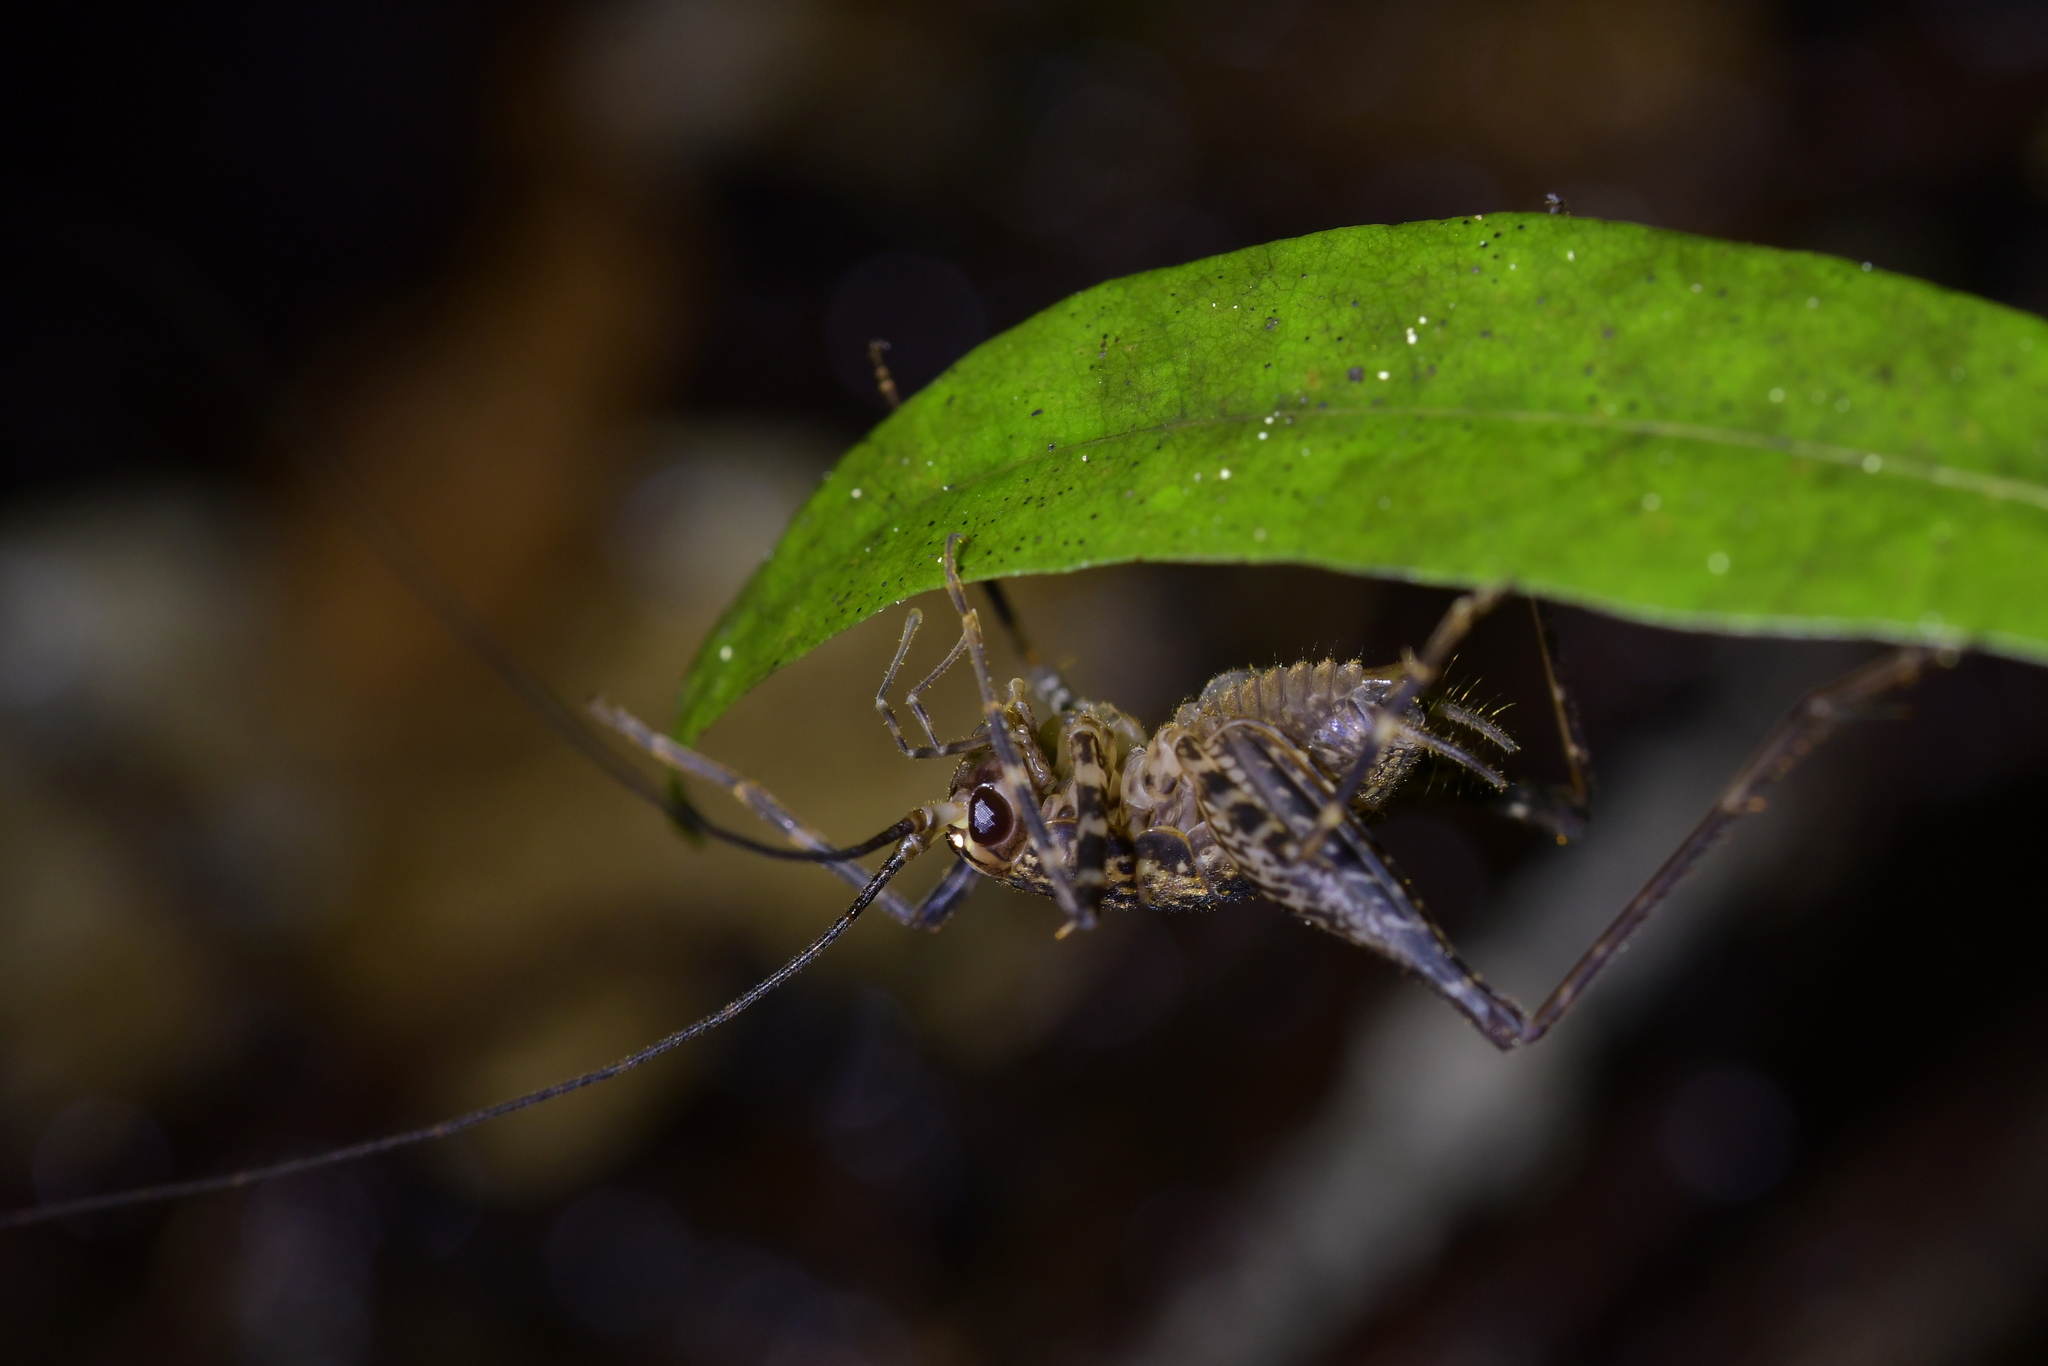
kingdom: Animalia
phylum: Arthropoda
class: Insecta
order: Orthoptera
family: Rhaphidophoridae
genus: Pleioplectron
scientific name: Pleioplectron hudsoni
